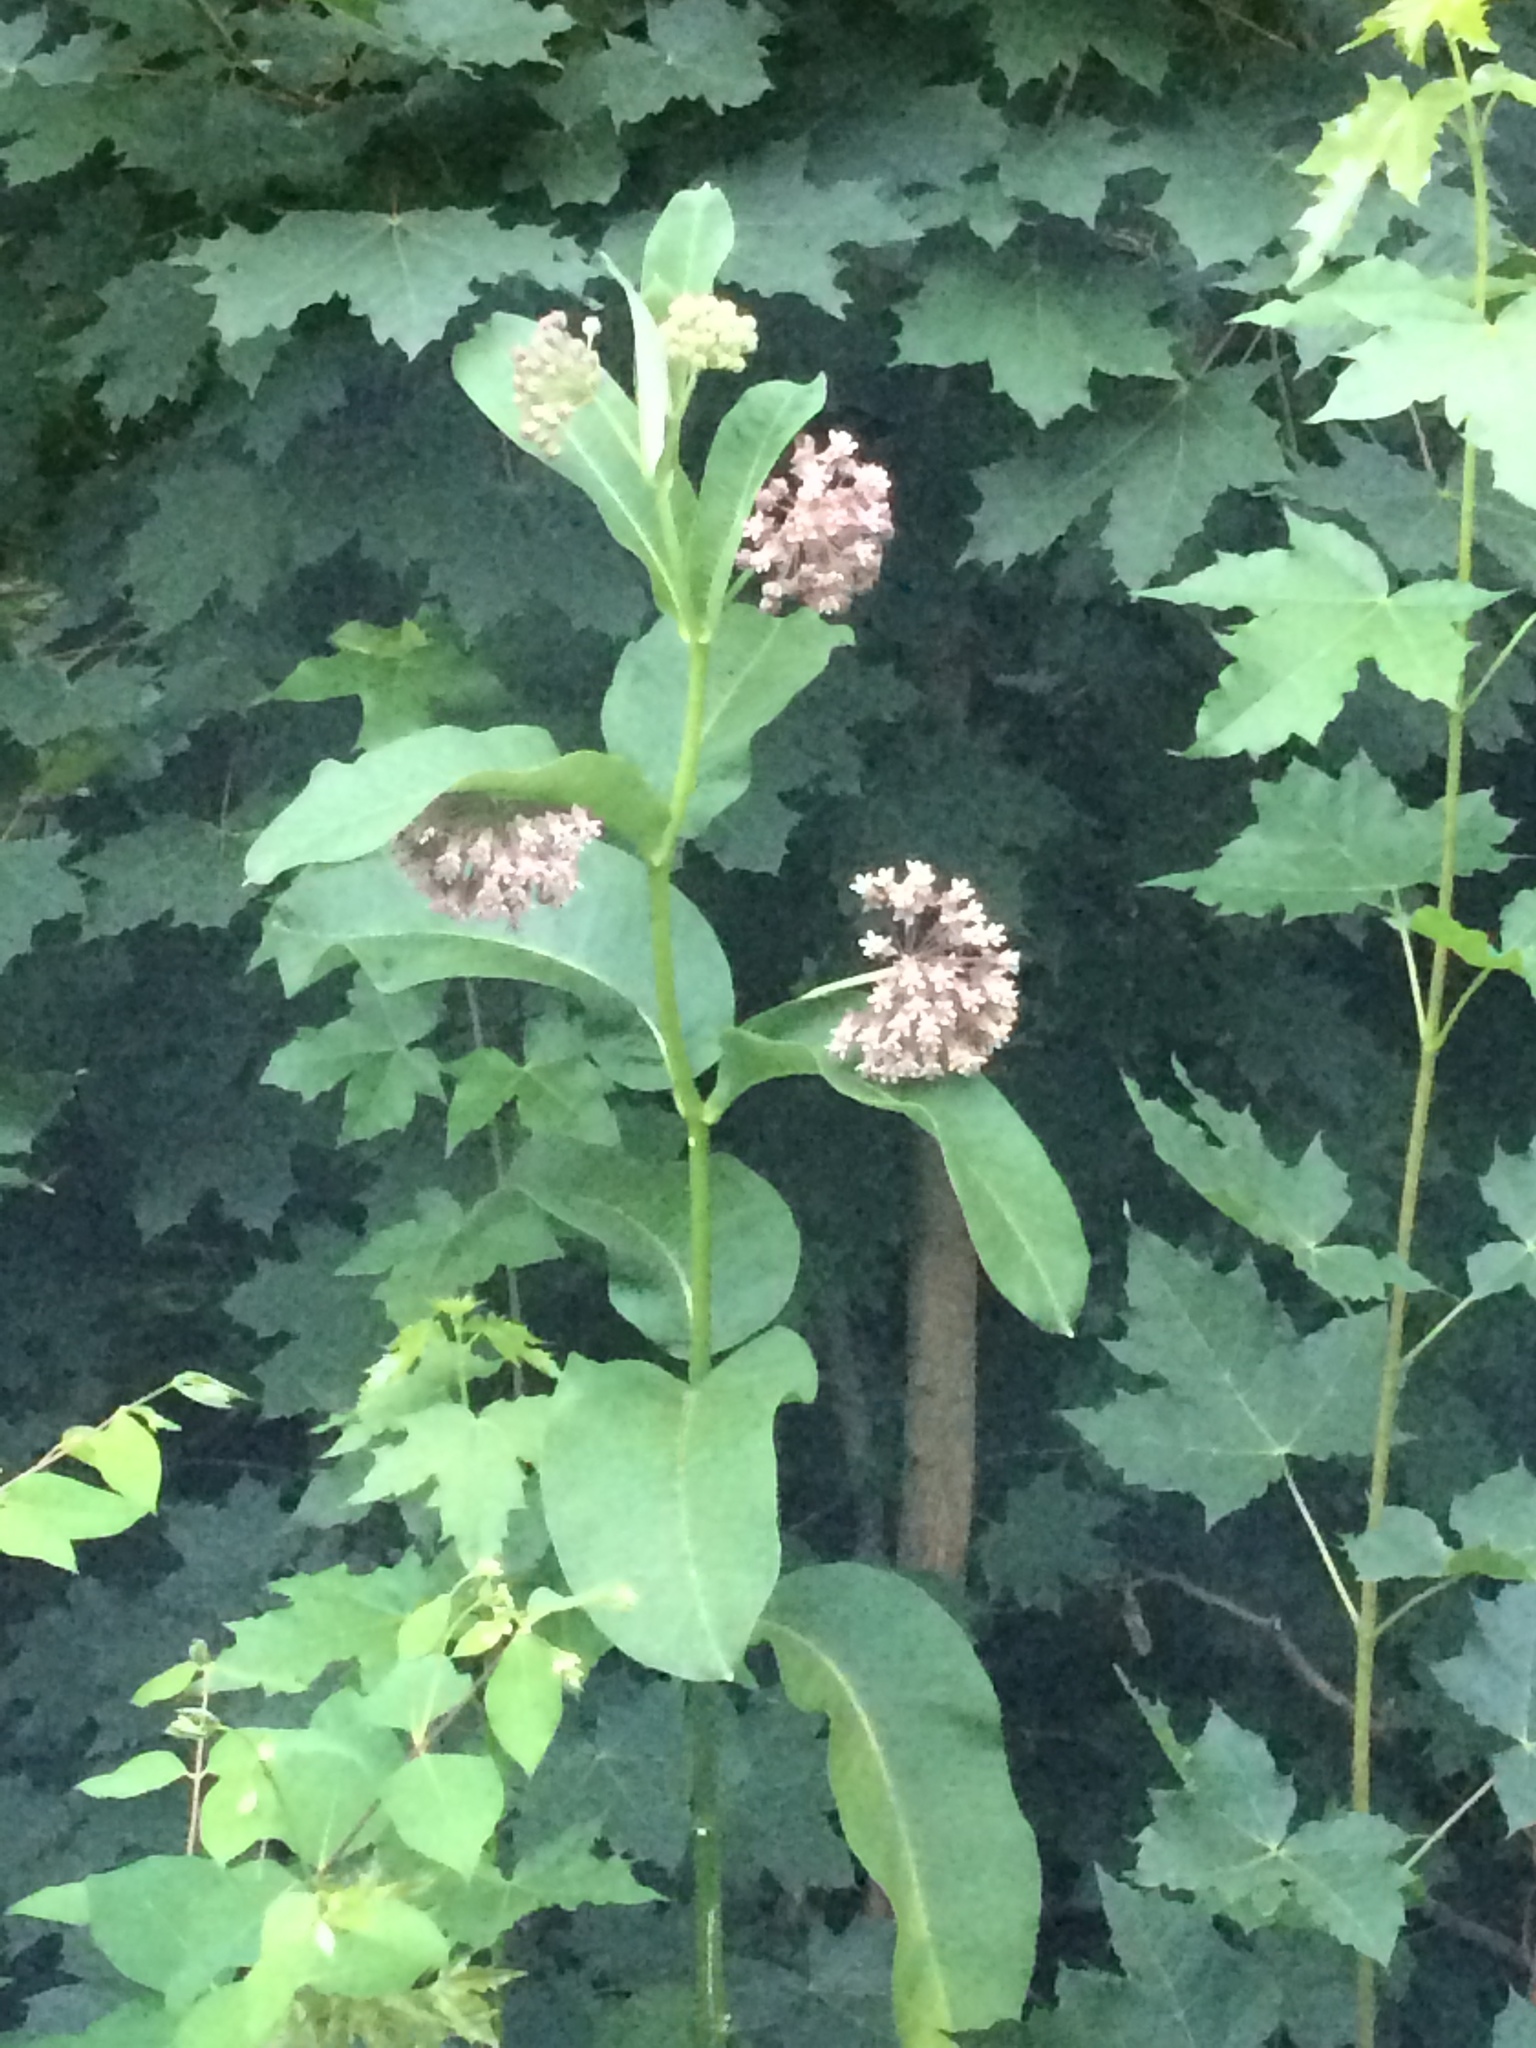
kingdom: Plantae
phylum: Tracheophyta
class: Magnoliopsida
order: Gentianales
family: Apocynaceae
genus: Asclepias
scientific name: Asclepias syriaca
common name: Common milkweed
